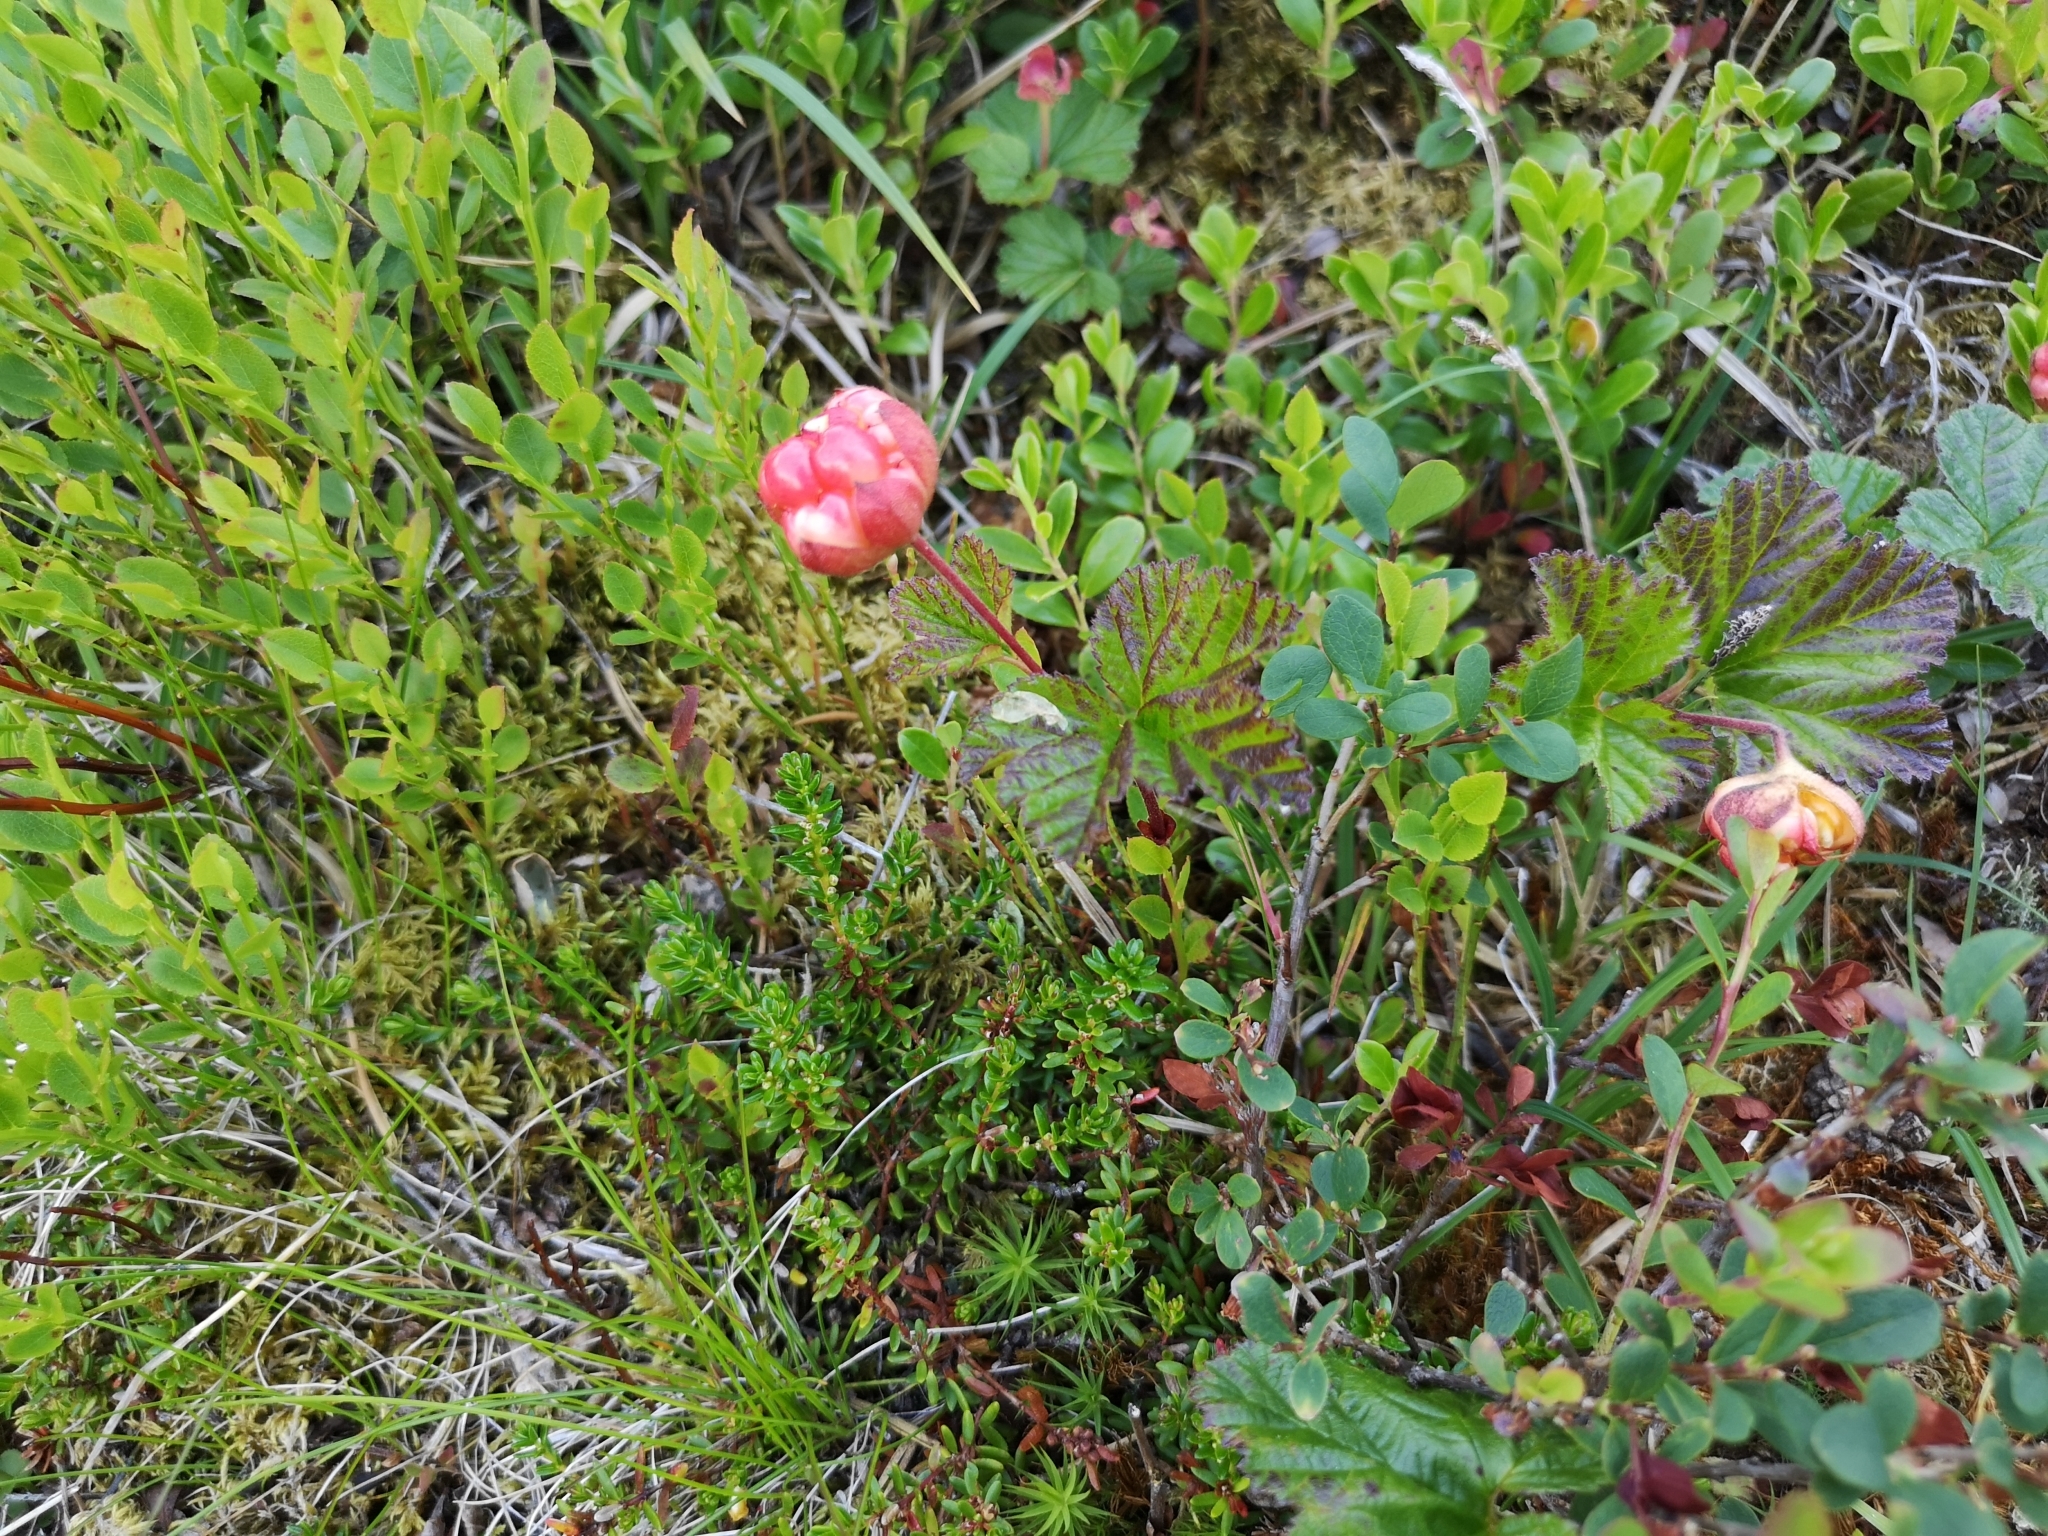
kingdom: Plantae
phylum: Tracheophyta
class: Magnoliopsida
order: Rosales
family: Rosaceae
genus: Rubus
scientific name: Rubus chamaemorus
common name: Cloudberry
